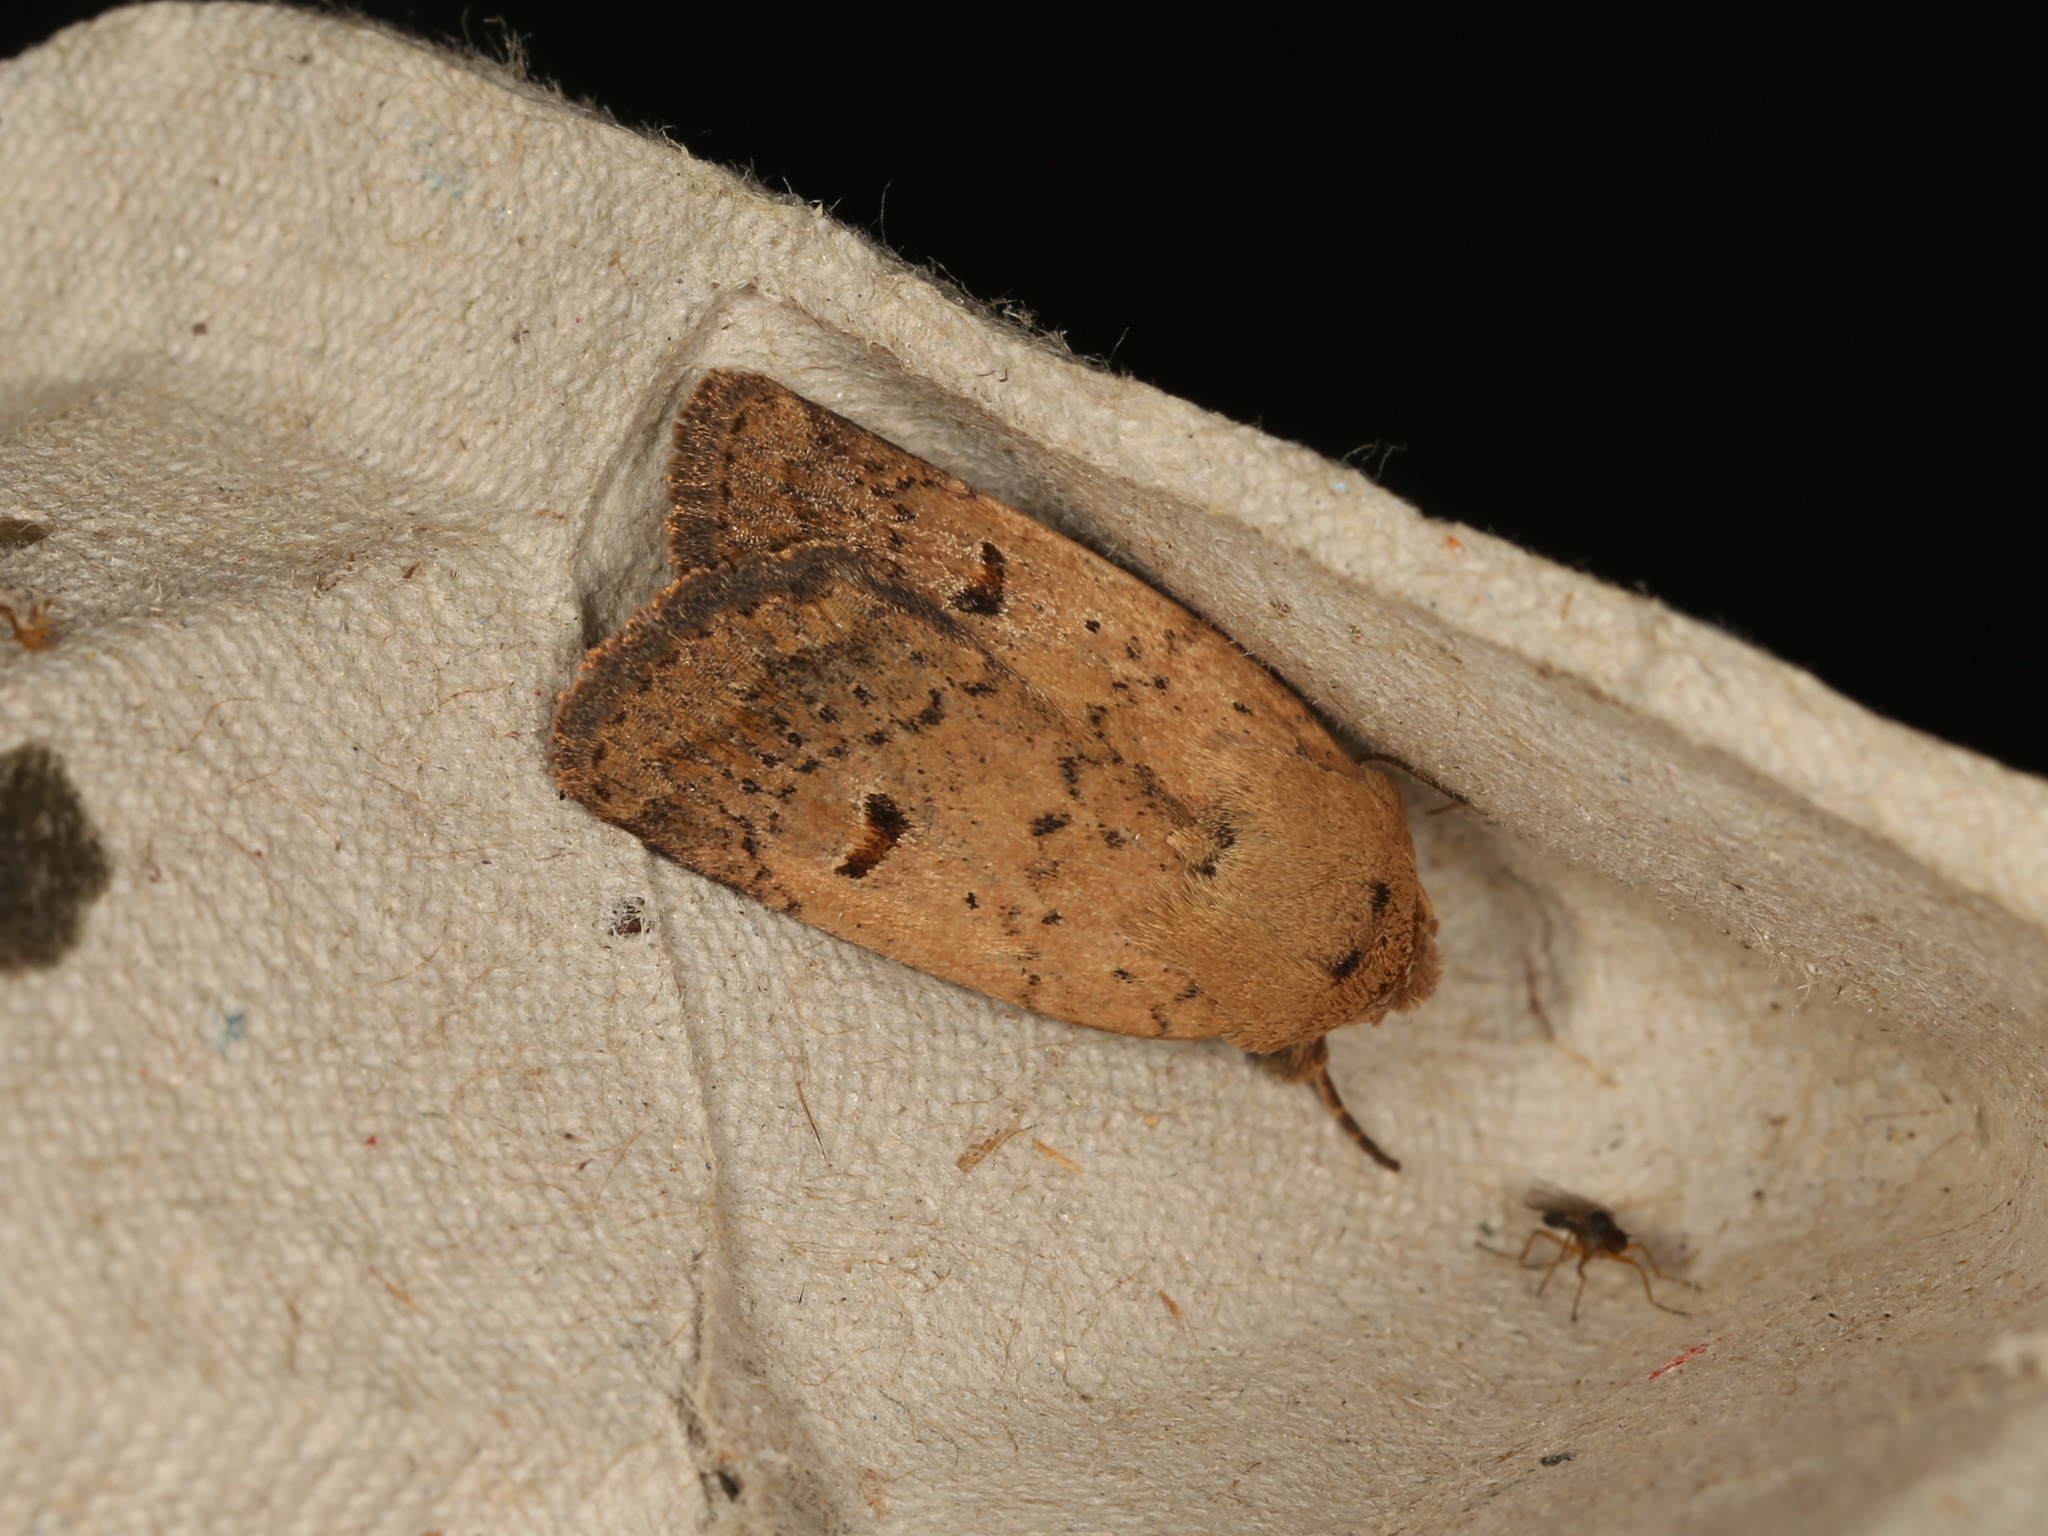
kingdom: Animalia
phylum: Arthropoda
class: Insecta
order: Lepidoptera
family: Noctuidae
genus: Proteuxoa
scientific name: Proteuxoa hypochalchis
